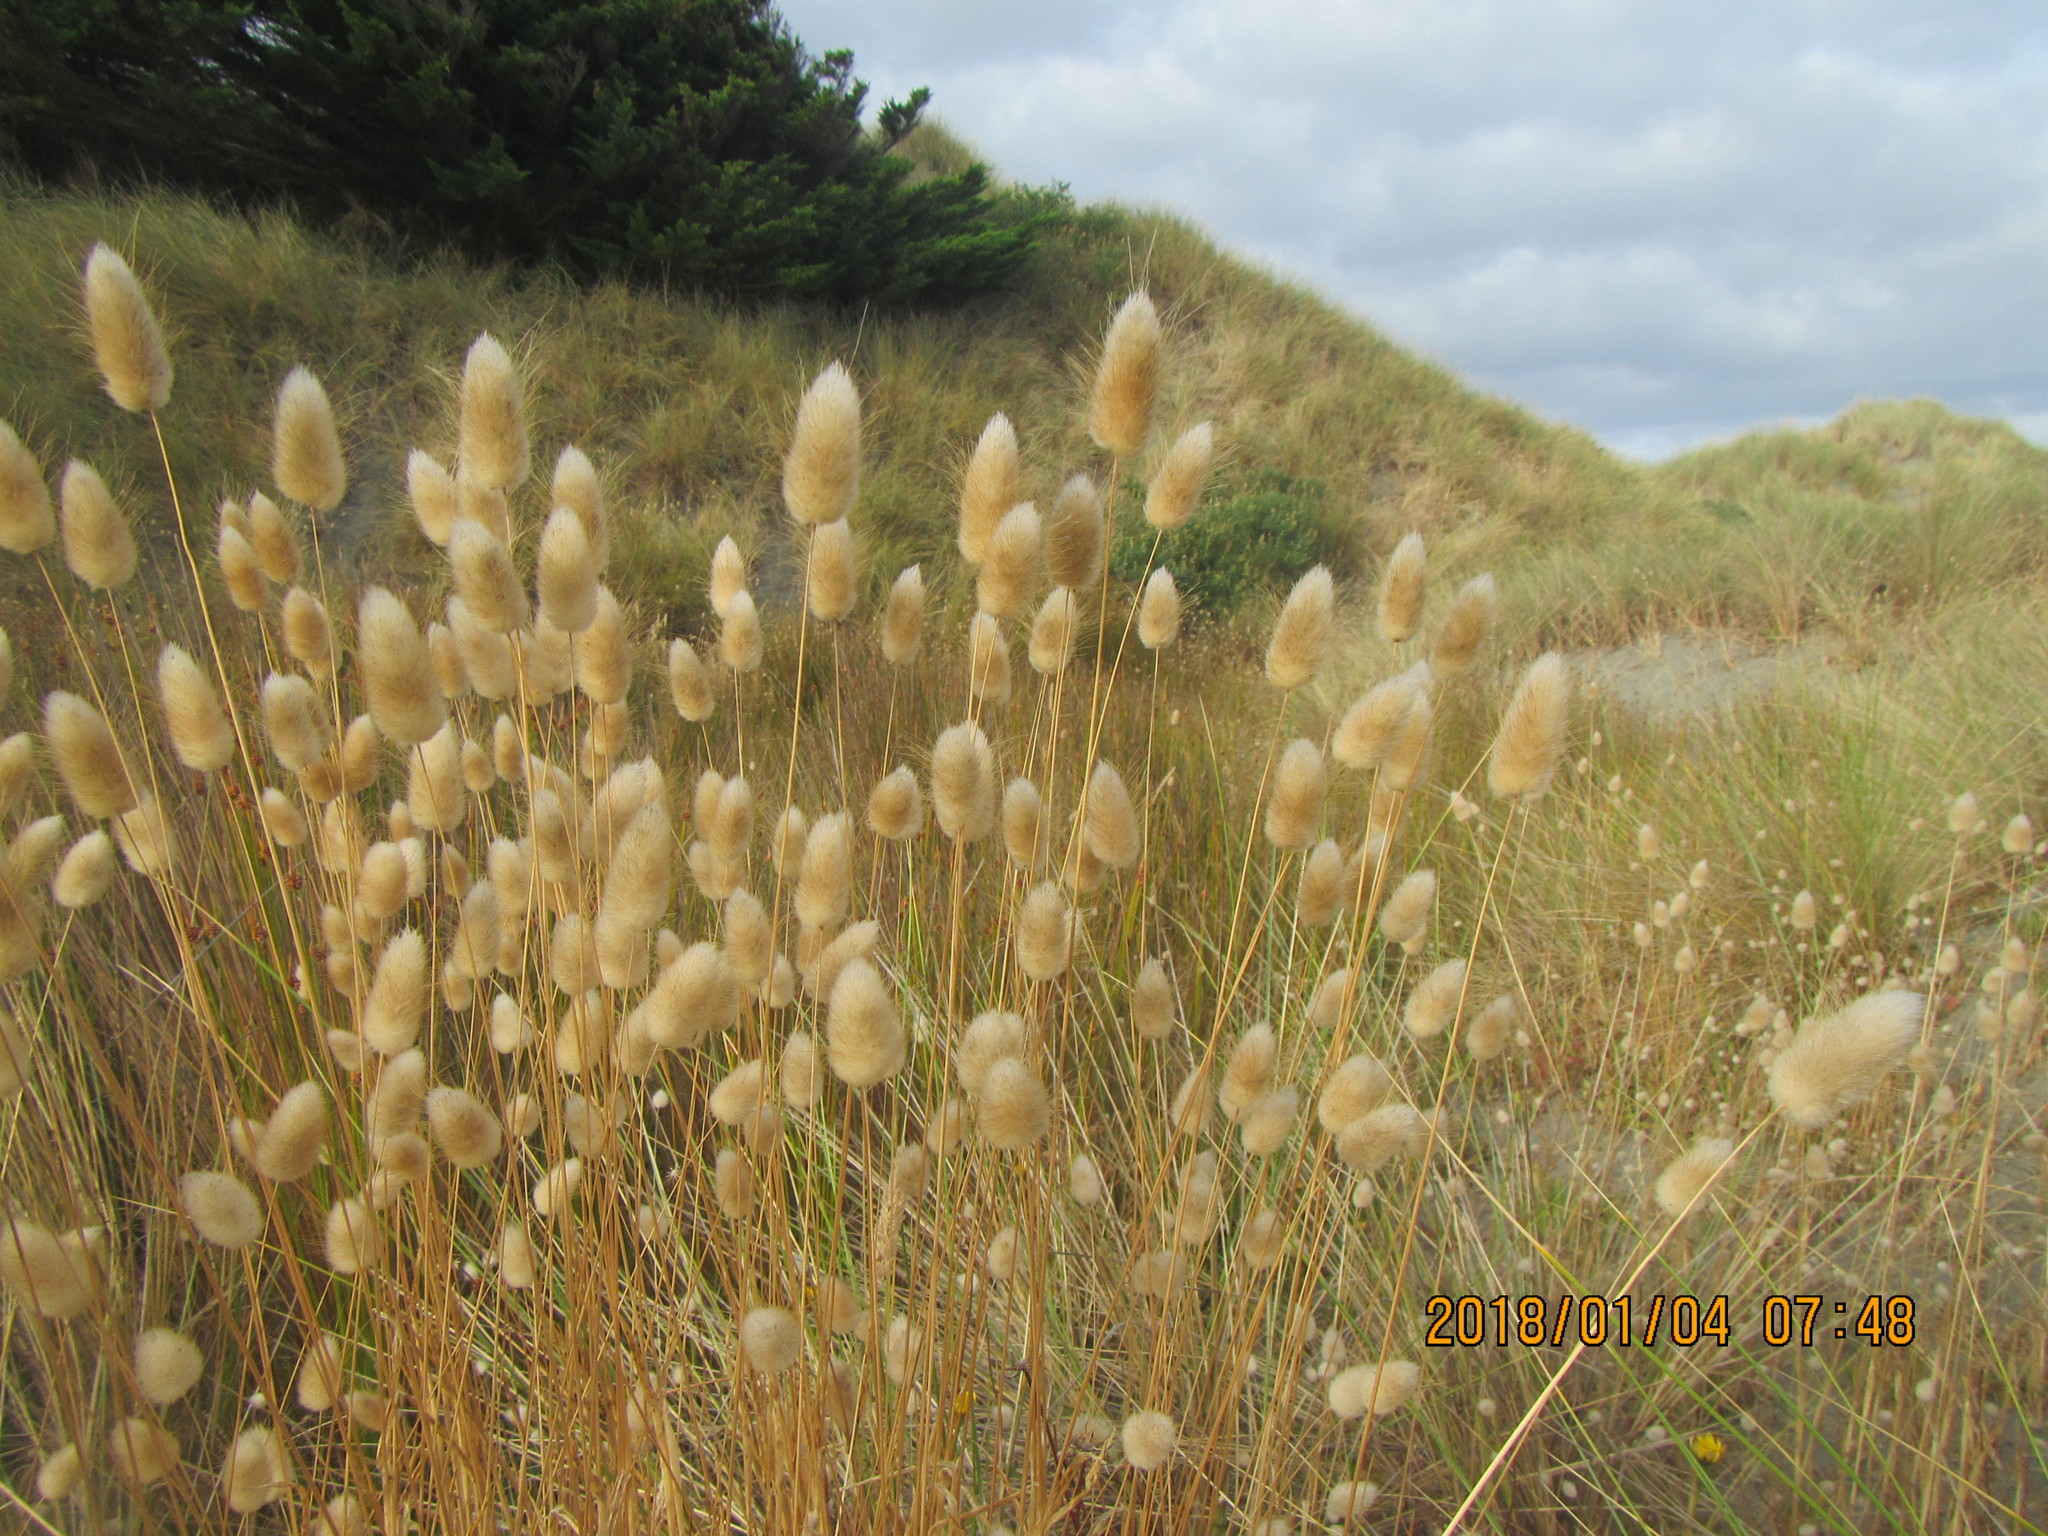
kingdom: Plantae
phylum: Tracheophyta
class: Liliopsida
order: Poales
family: Poaceae
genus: Lagurus
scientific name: Lagurus ovatus
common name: Hare's-tail
